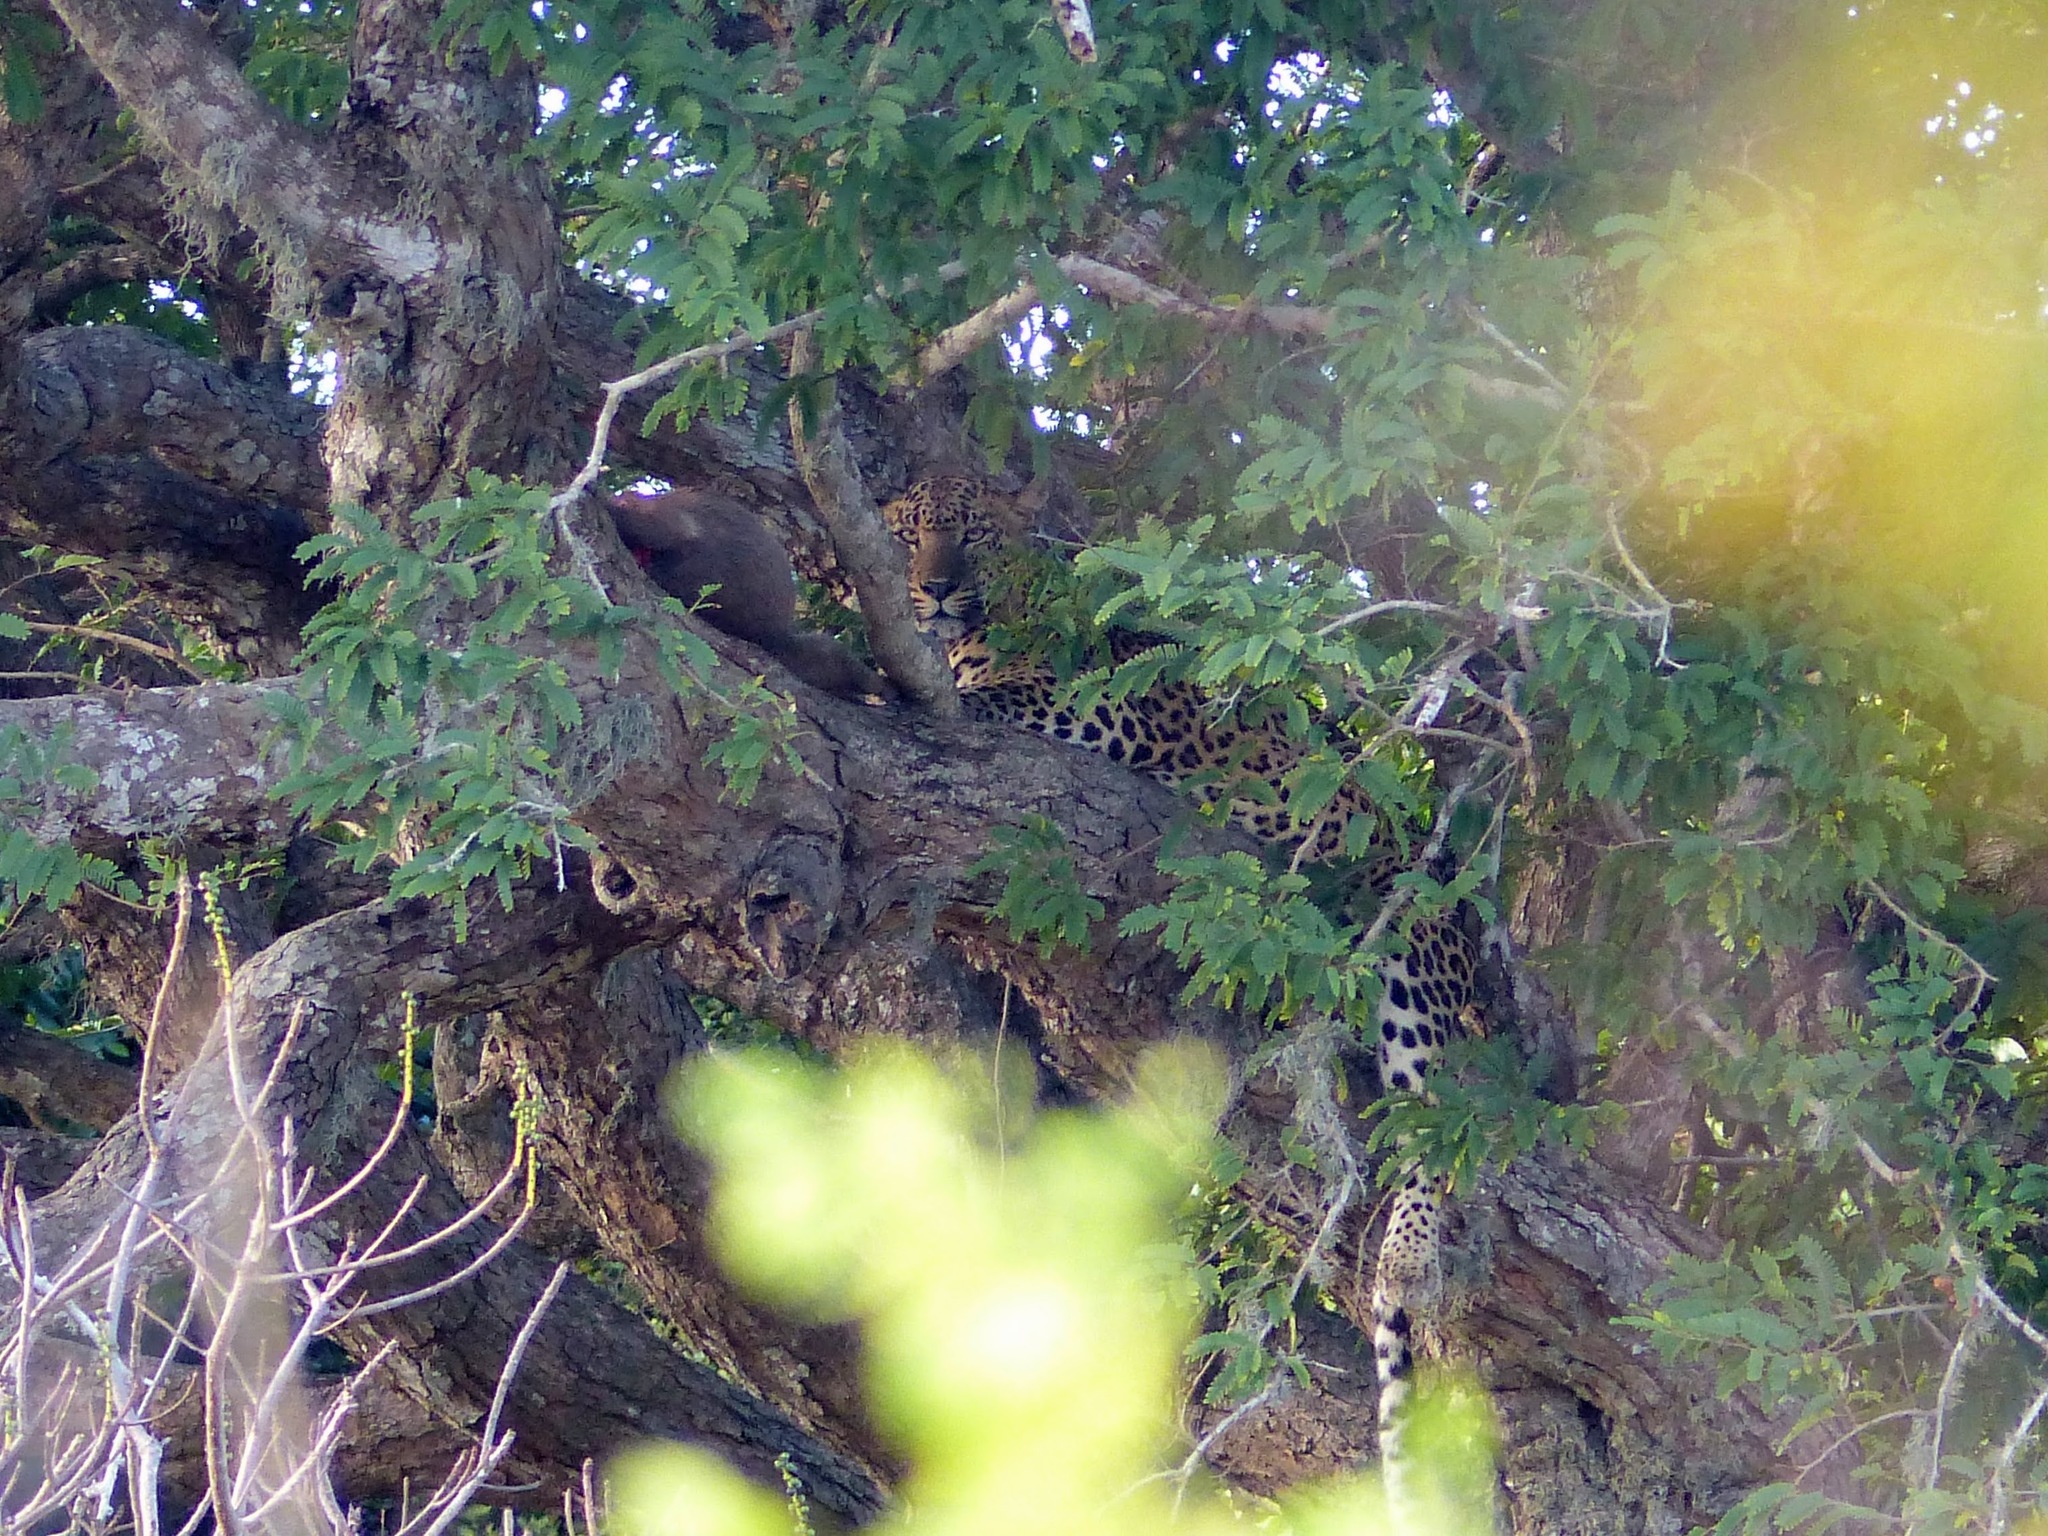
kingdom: Animalia
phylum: Chordata
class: Mammalia
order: Carnivora
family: Felidae
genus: Panthera
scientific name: Panthera pardus
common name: Leopard
